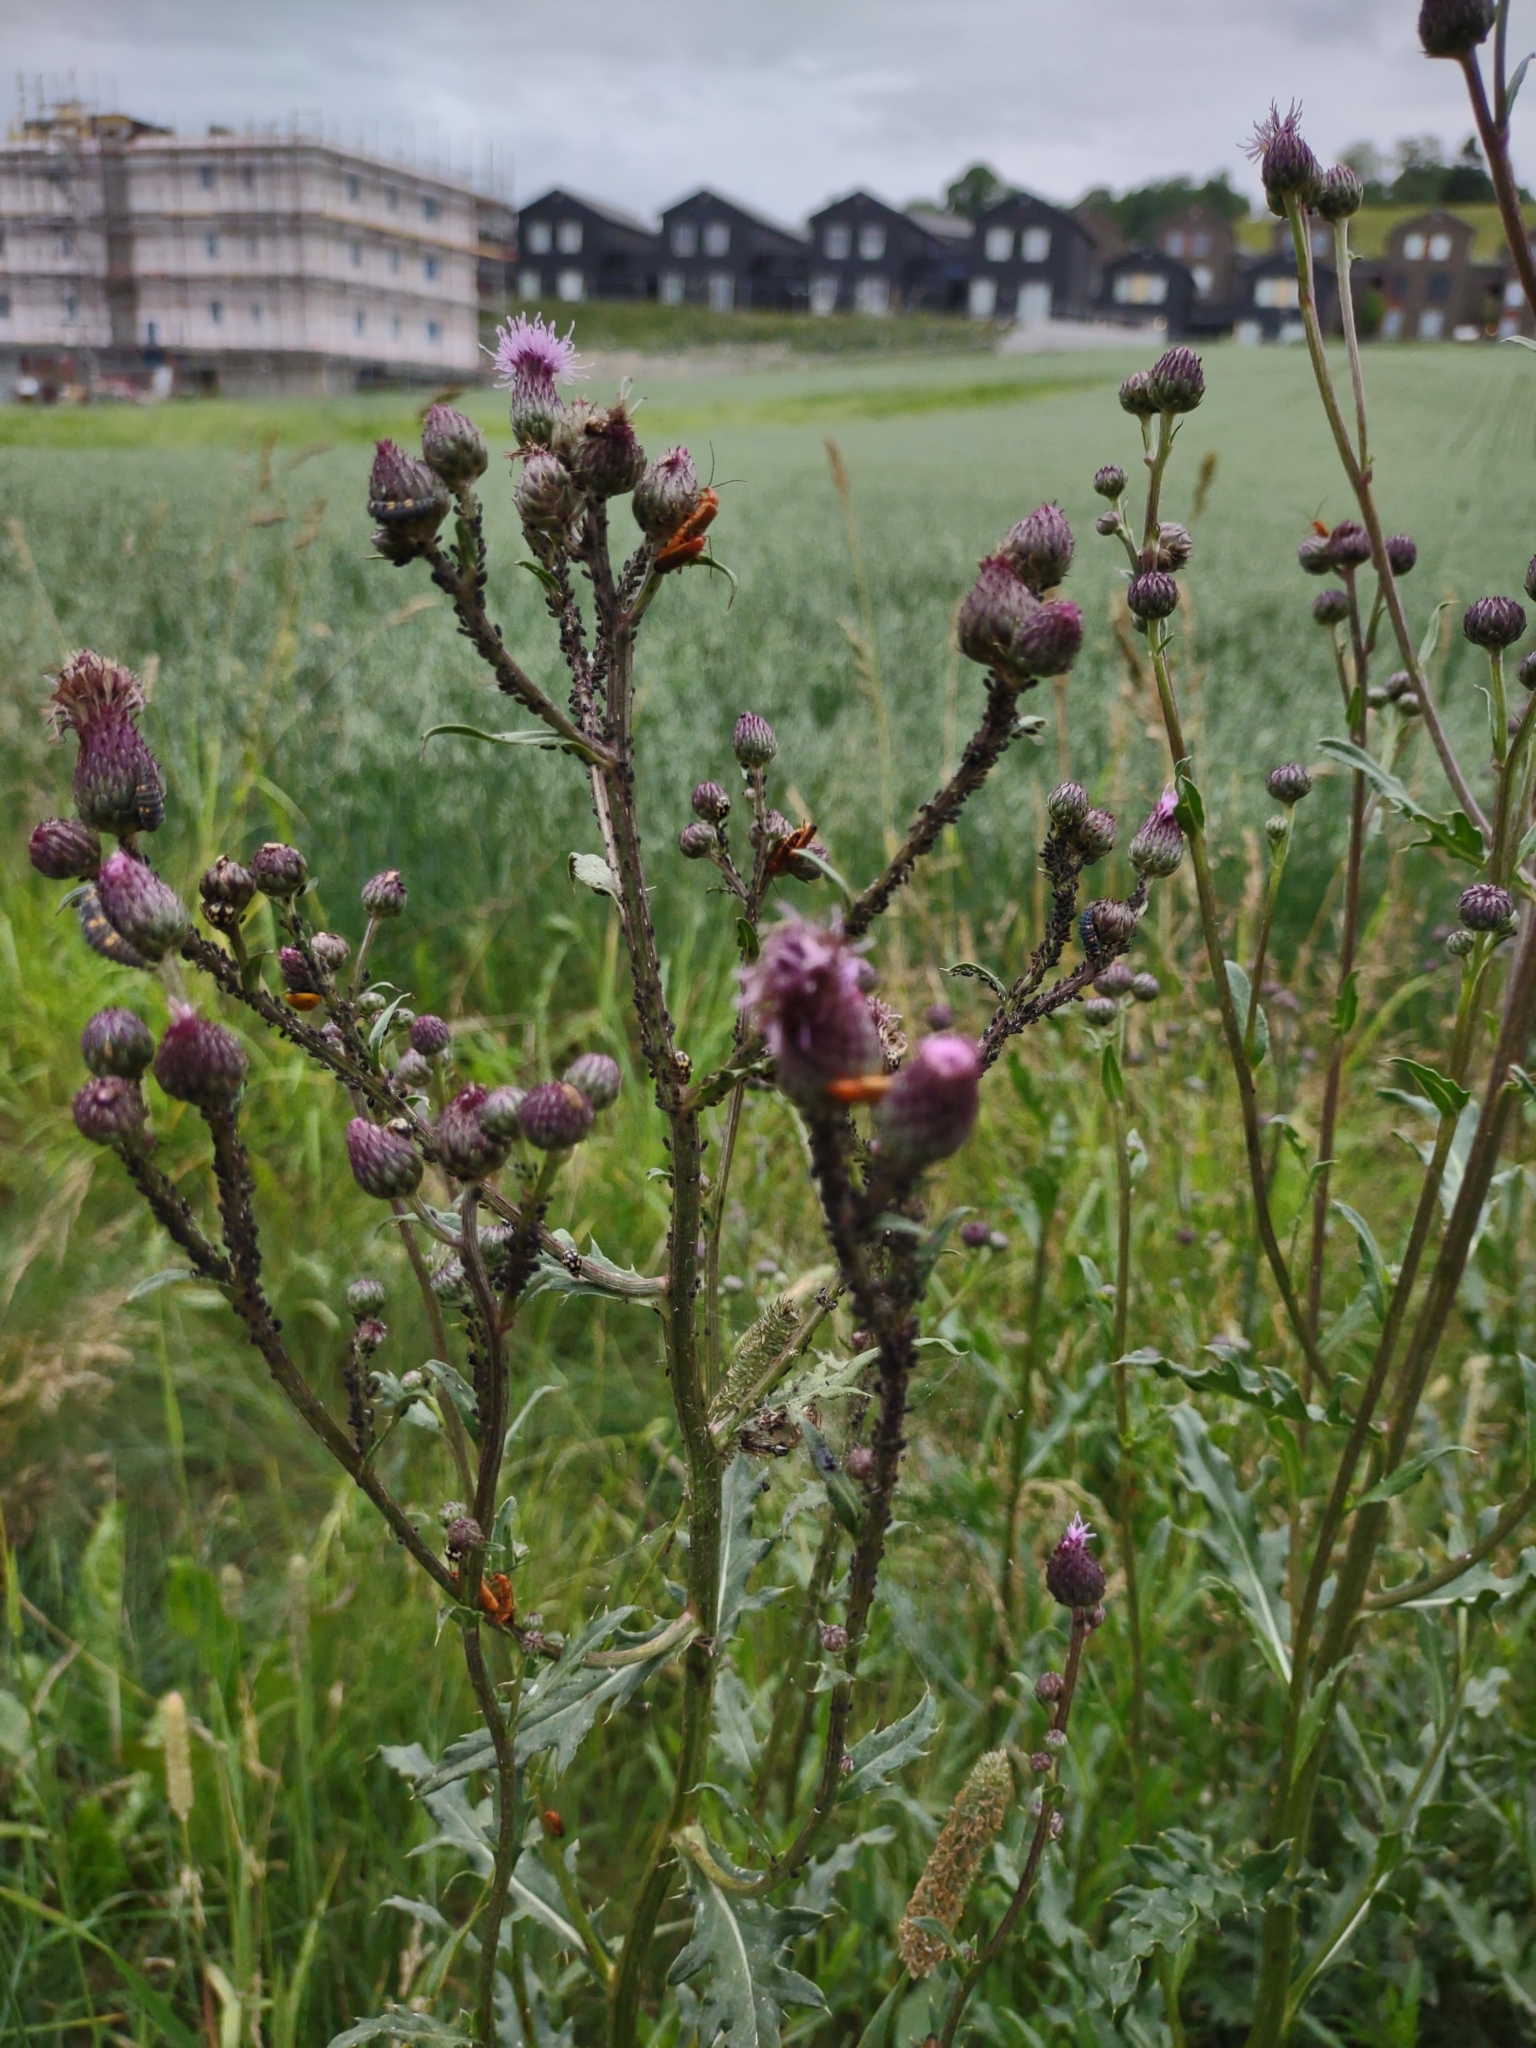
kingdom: Animalia
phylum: Arthropoda
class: Insecta
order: Coleoptera
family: Cantharidae
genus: Rhagonycha
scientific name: Rhagonycha fulva
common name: Common red soldier beetle
